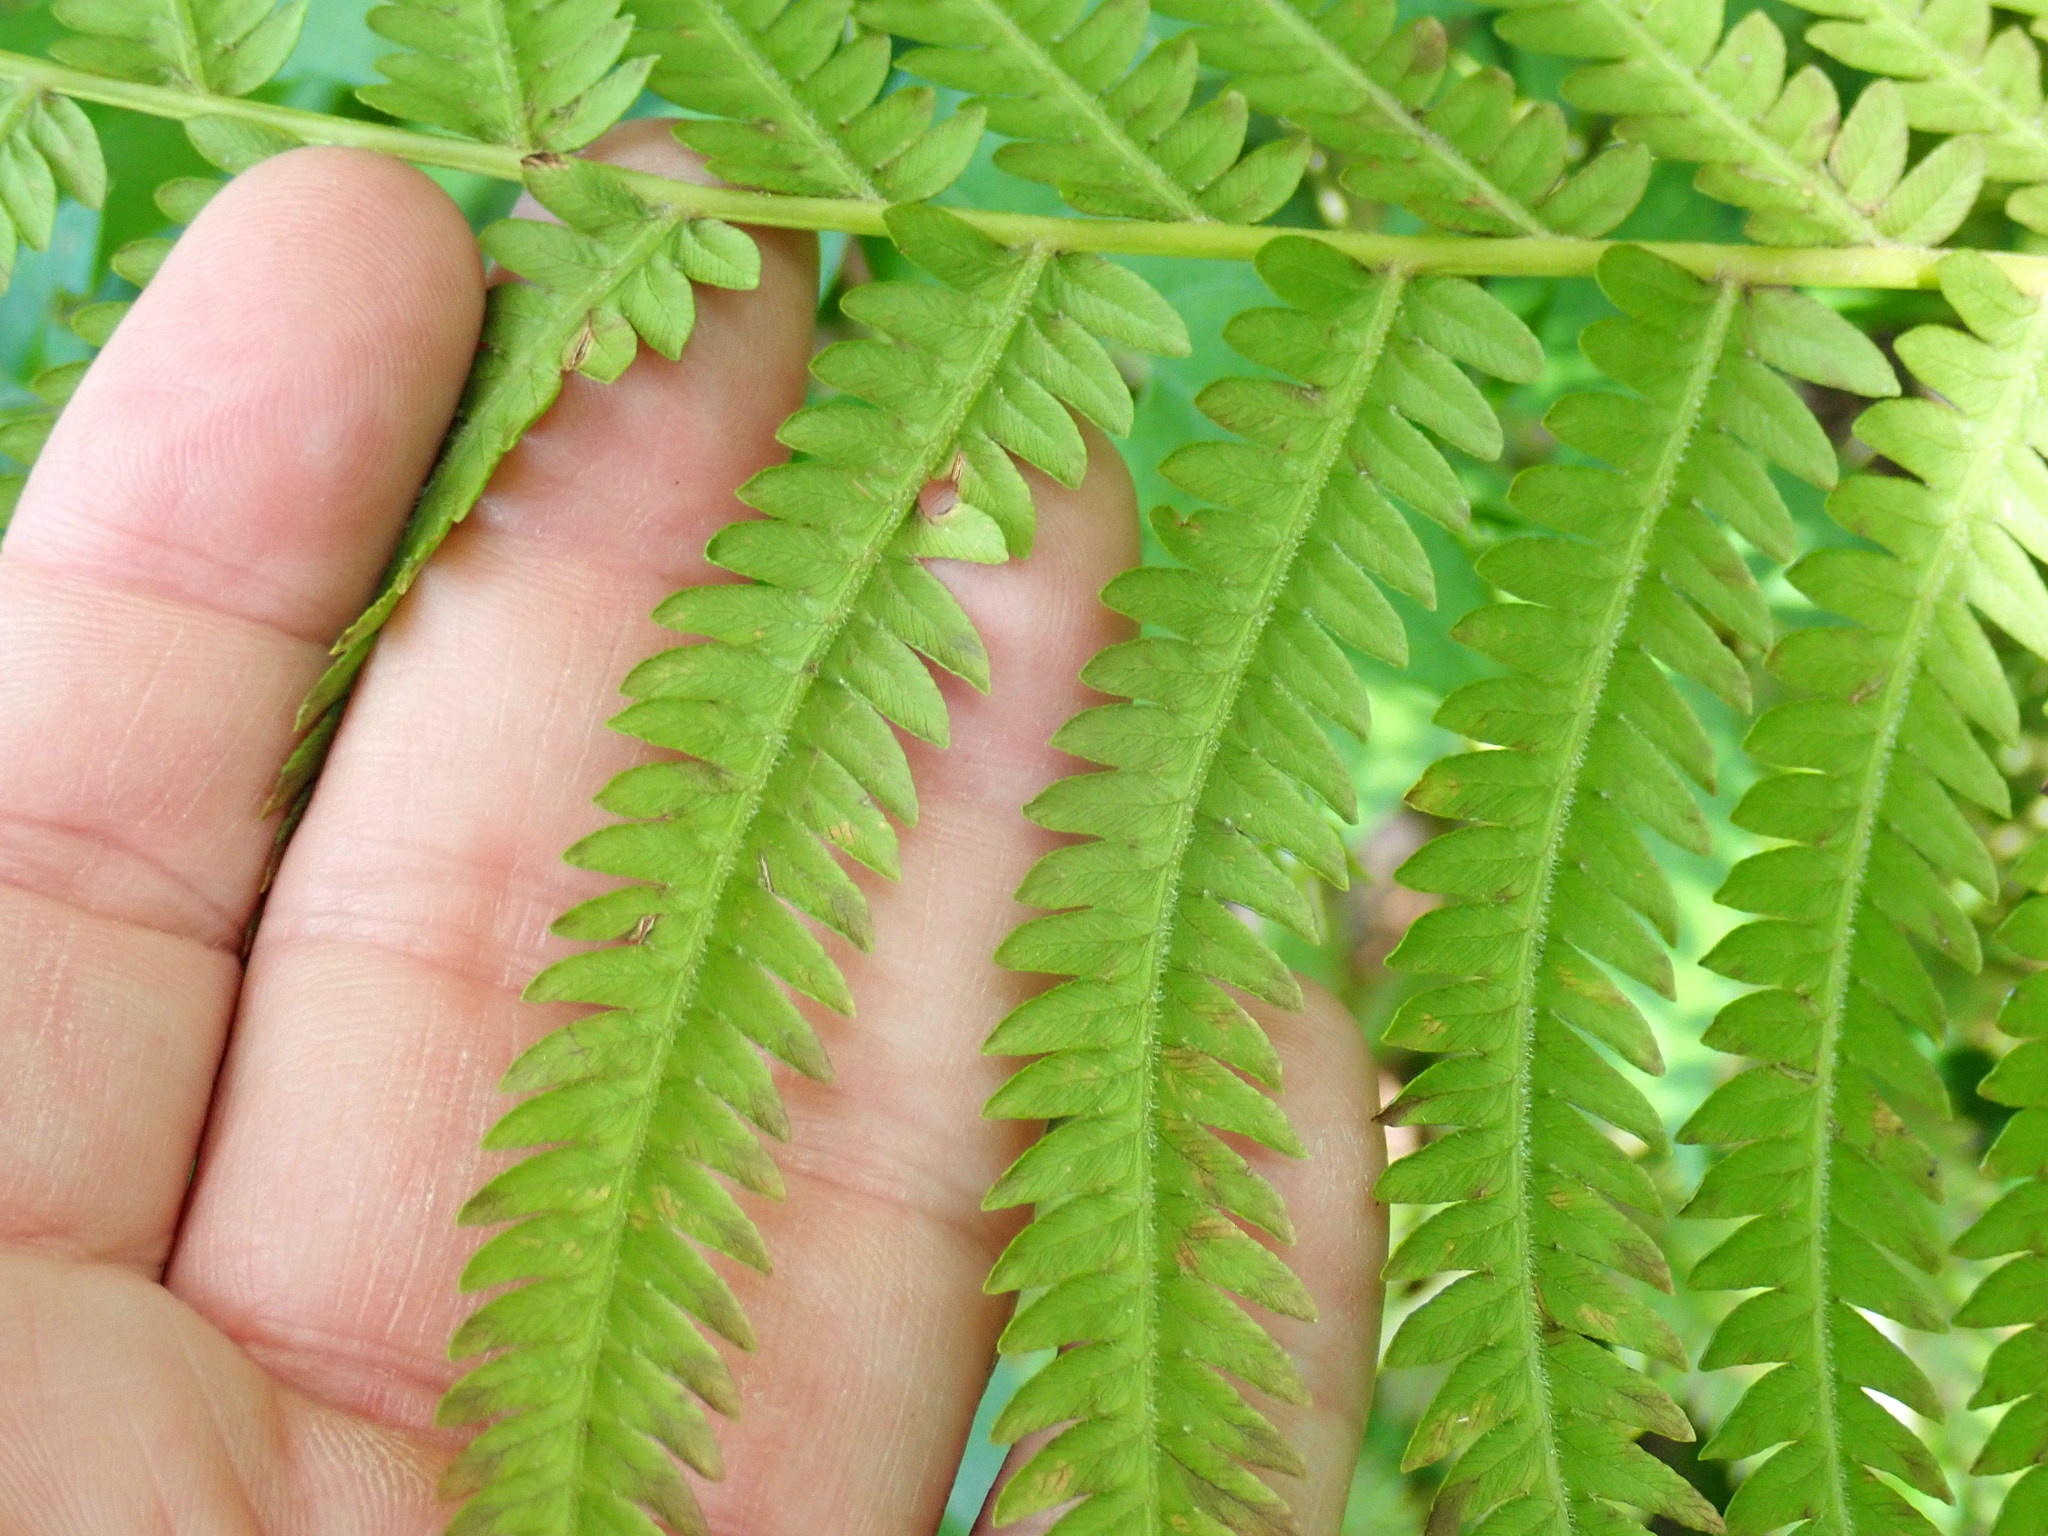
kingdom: Plantae
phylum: Tracheophyta
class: Polypodiopsida
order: Polypodiales
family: Onocleaceae
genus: Matteuccia
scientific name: Matteuccia struthiopteris
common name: Ostrich fern
